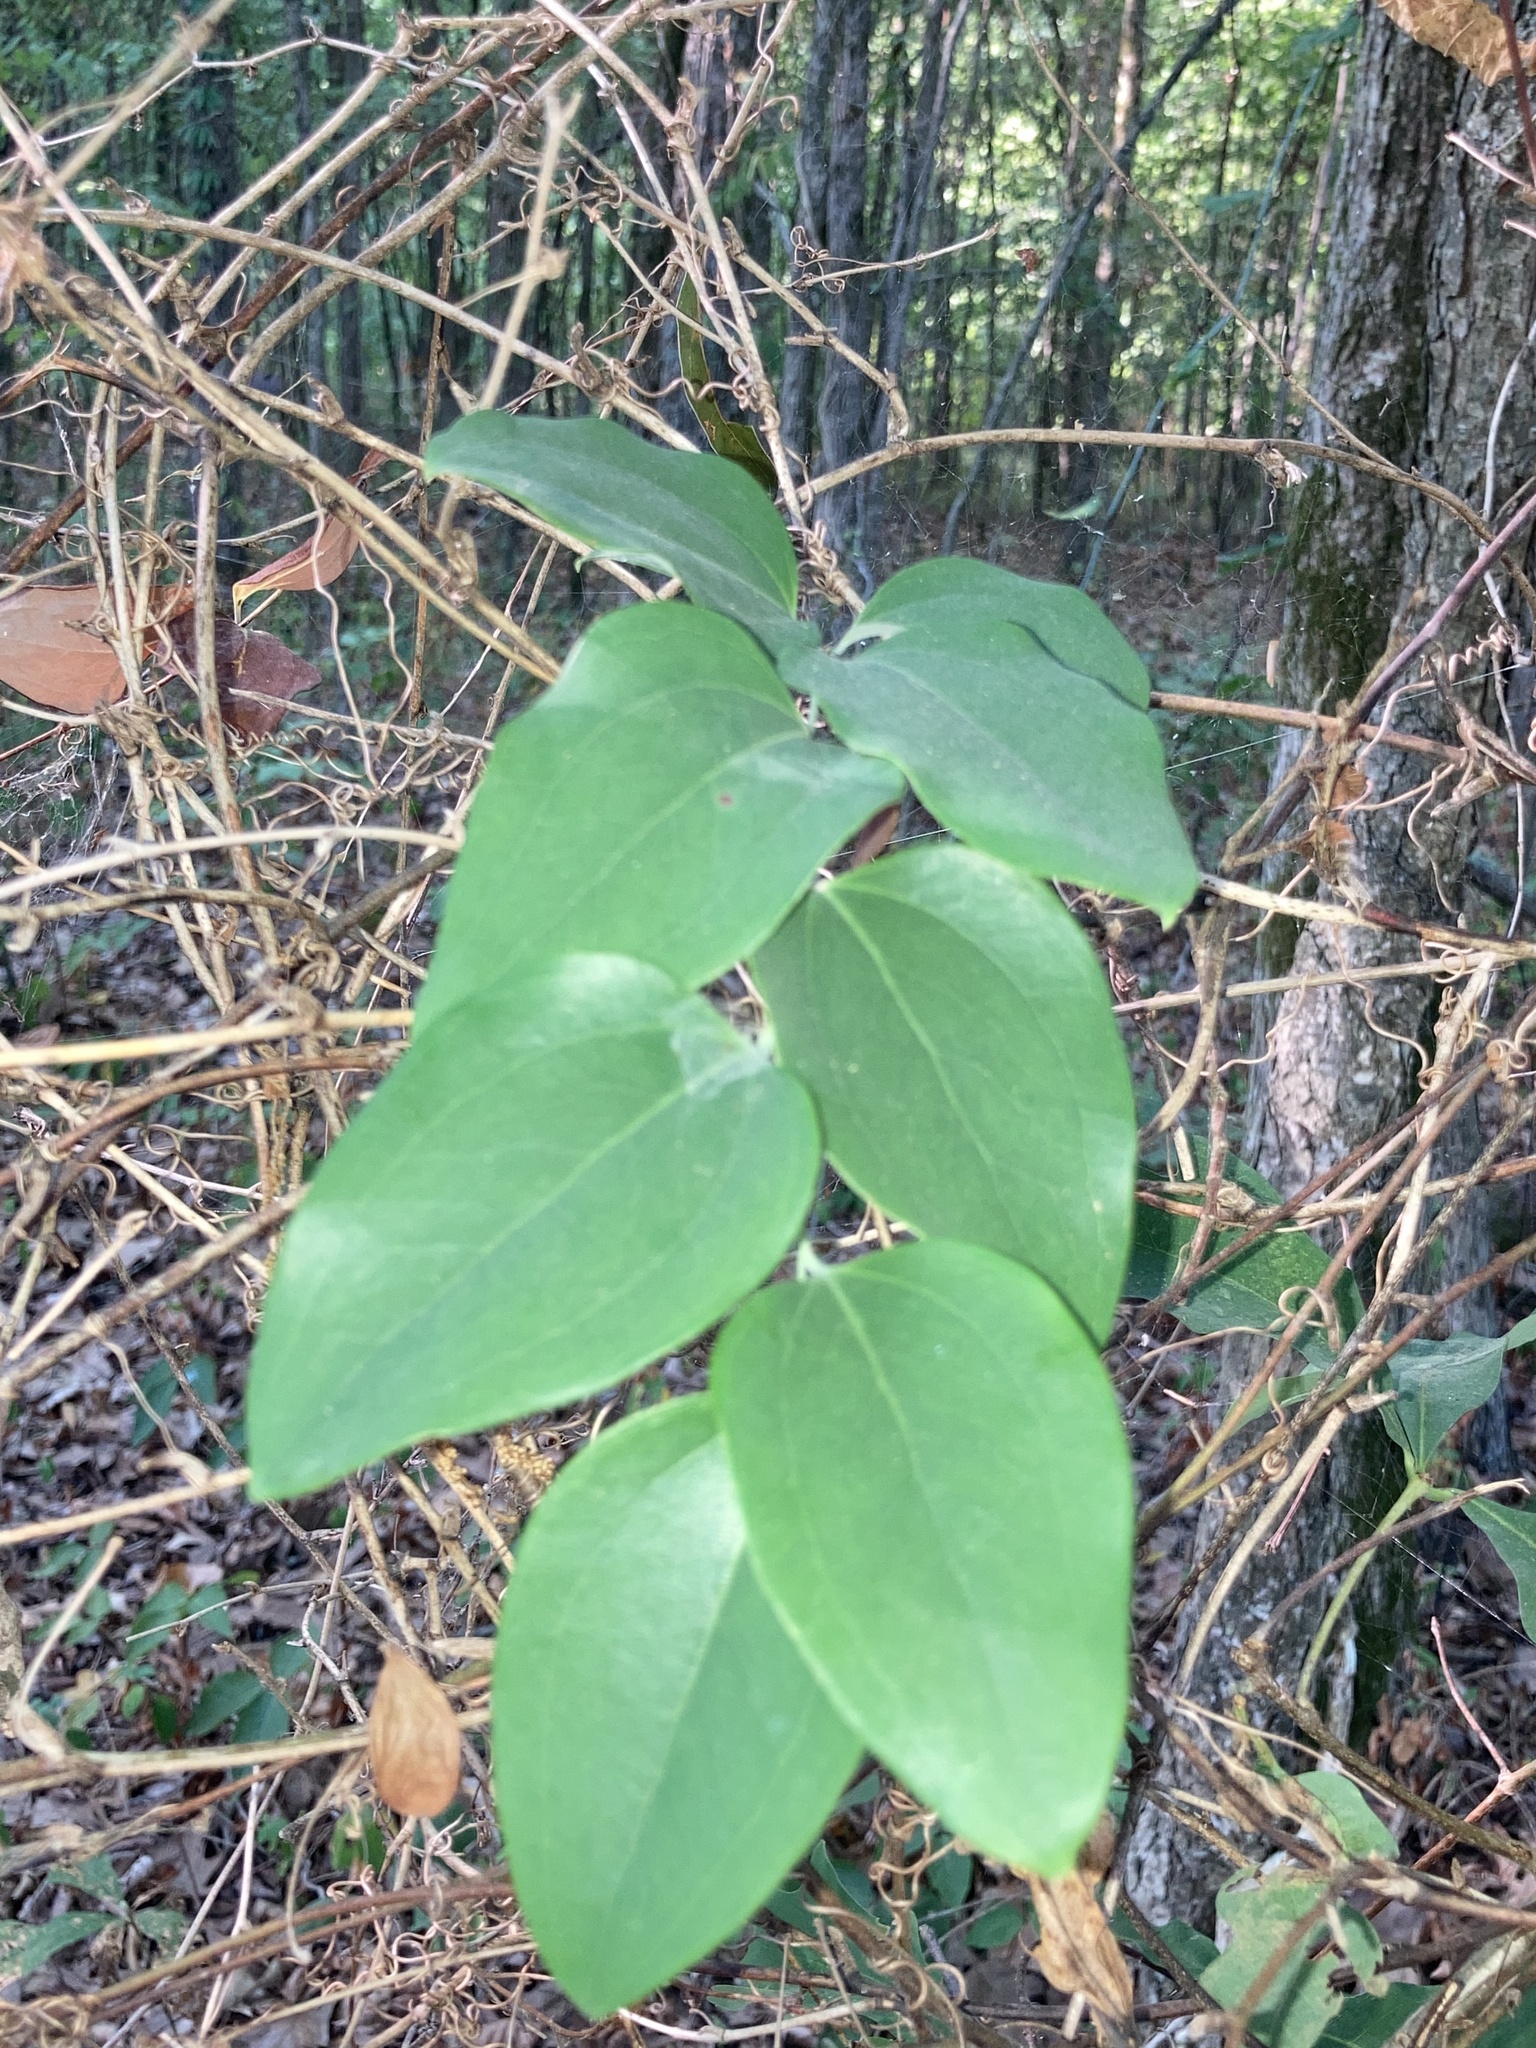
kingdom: Plantae
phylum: Tracheophyta
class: Liliopsida
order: Liliales
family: Smilacaceae
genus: Smilax
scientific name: Smilax glauca
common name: Cat greenbrier
